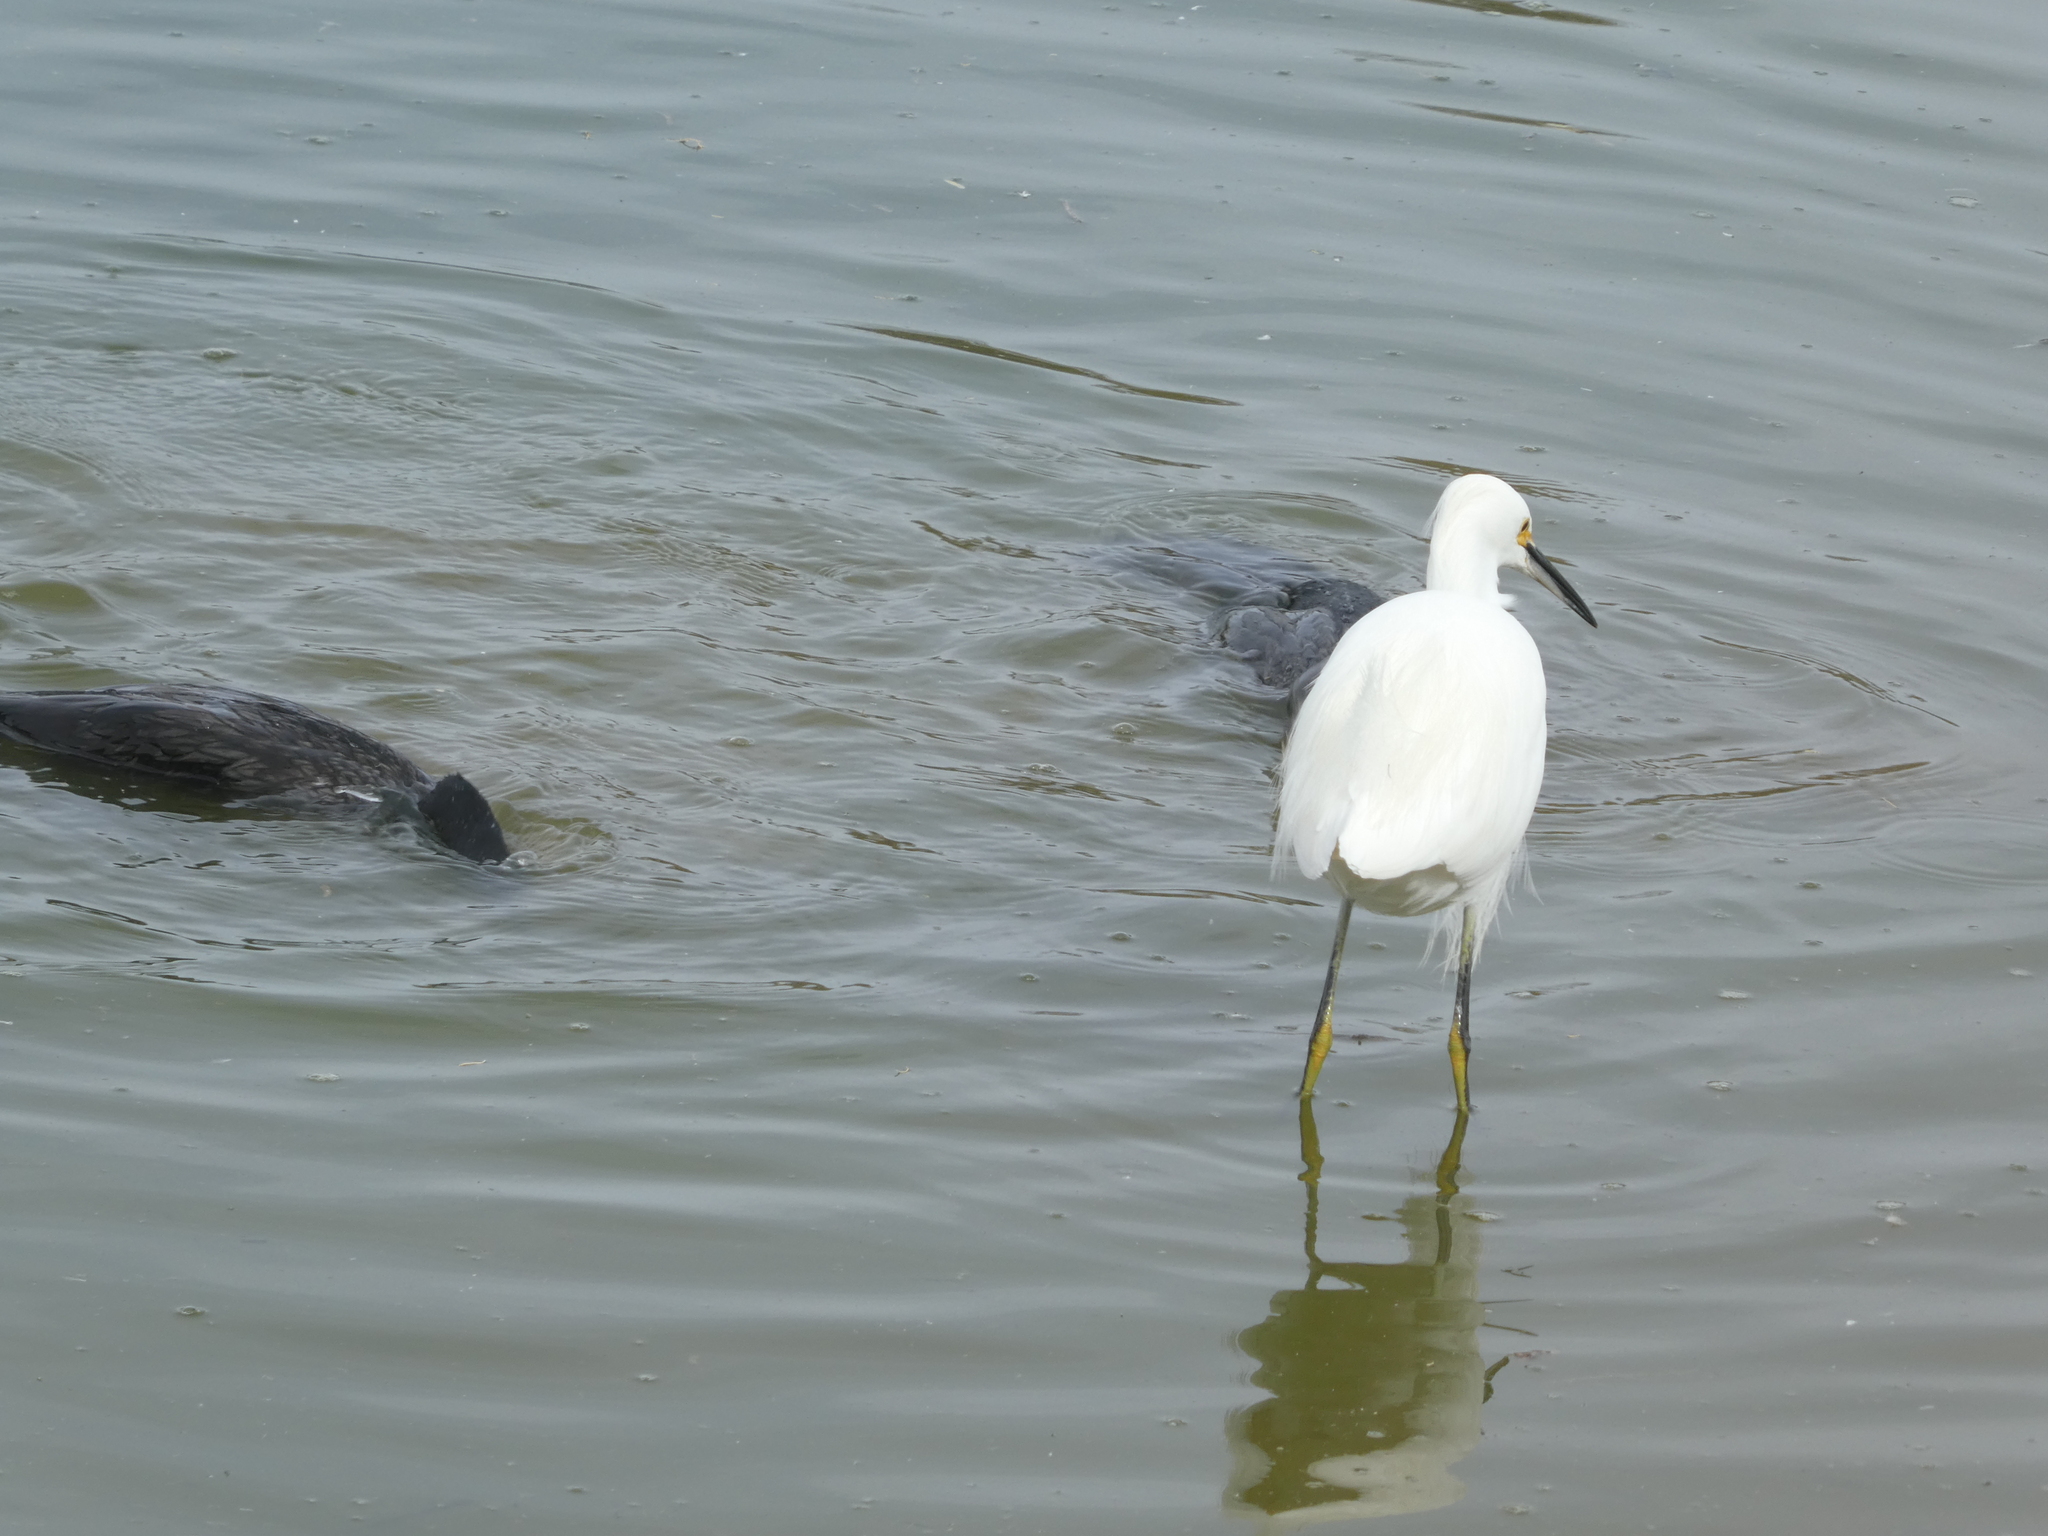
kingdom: Animalia
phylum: Chordata
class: Aves
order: Pelecaniformes
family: Ardeidae
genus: Egretta
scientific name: Egretta thula
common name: Snowy egret
